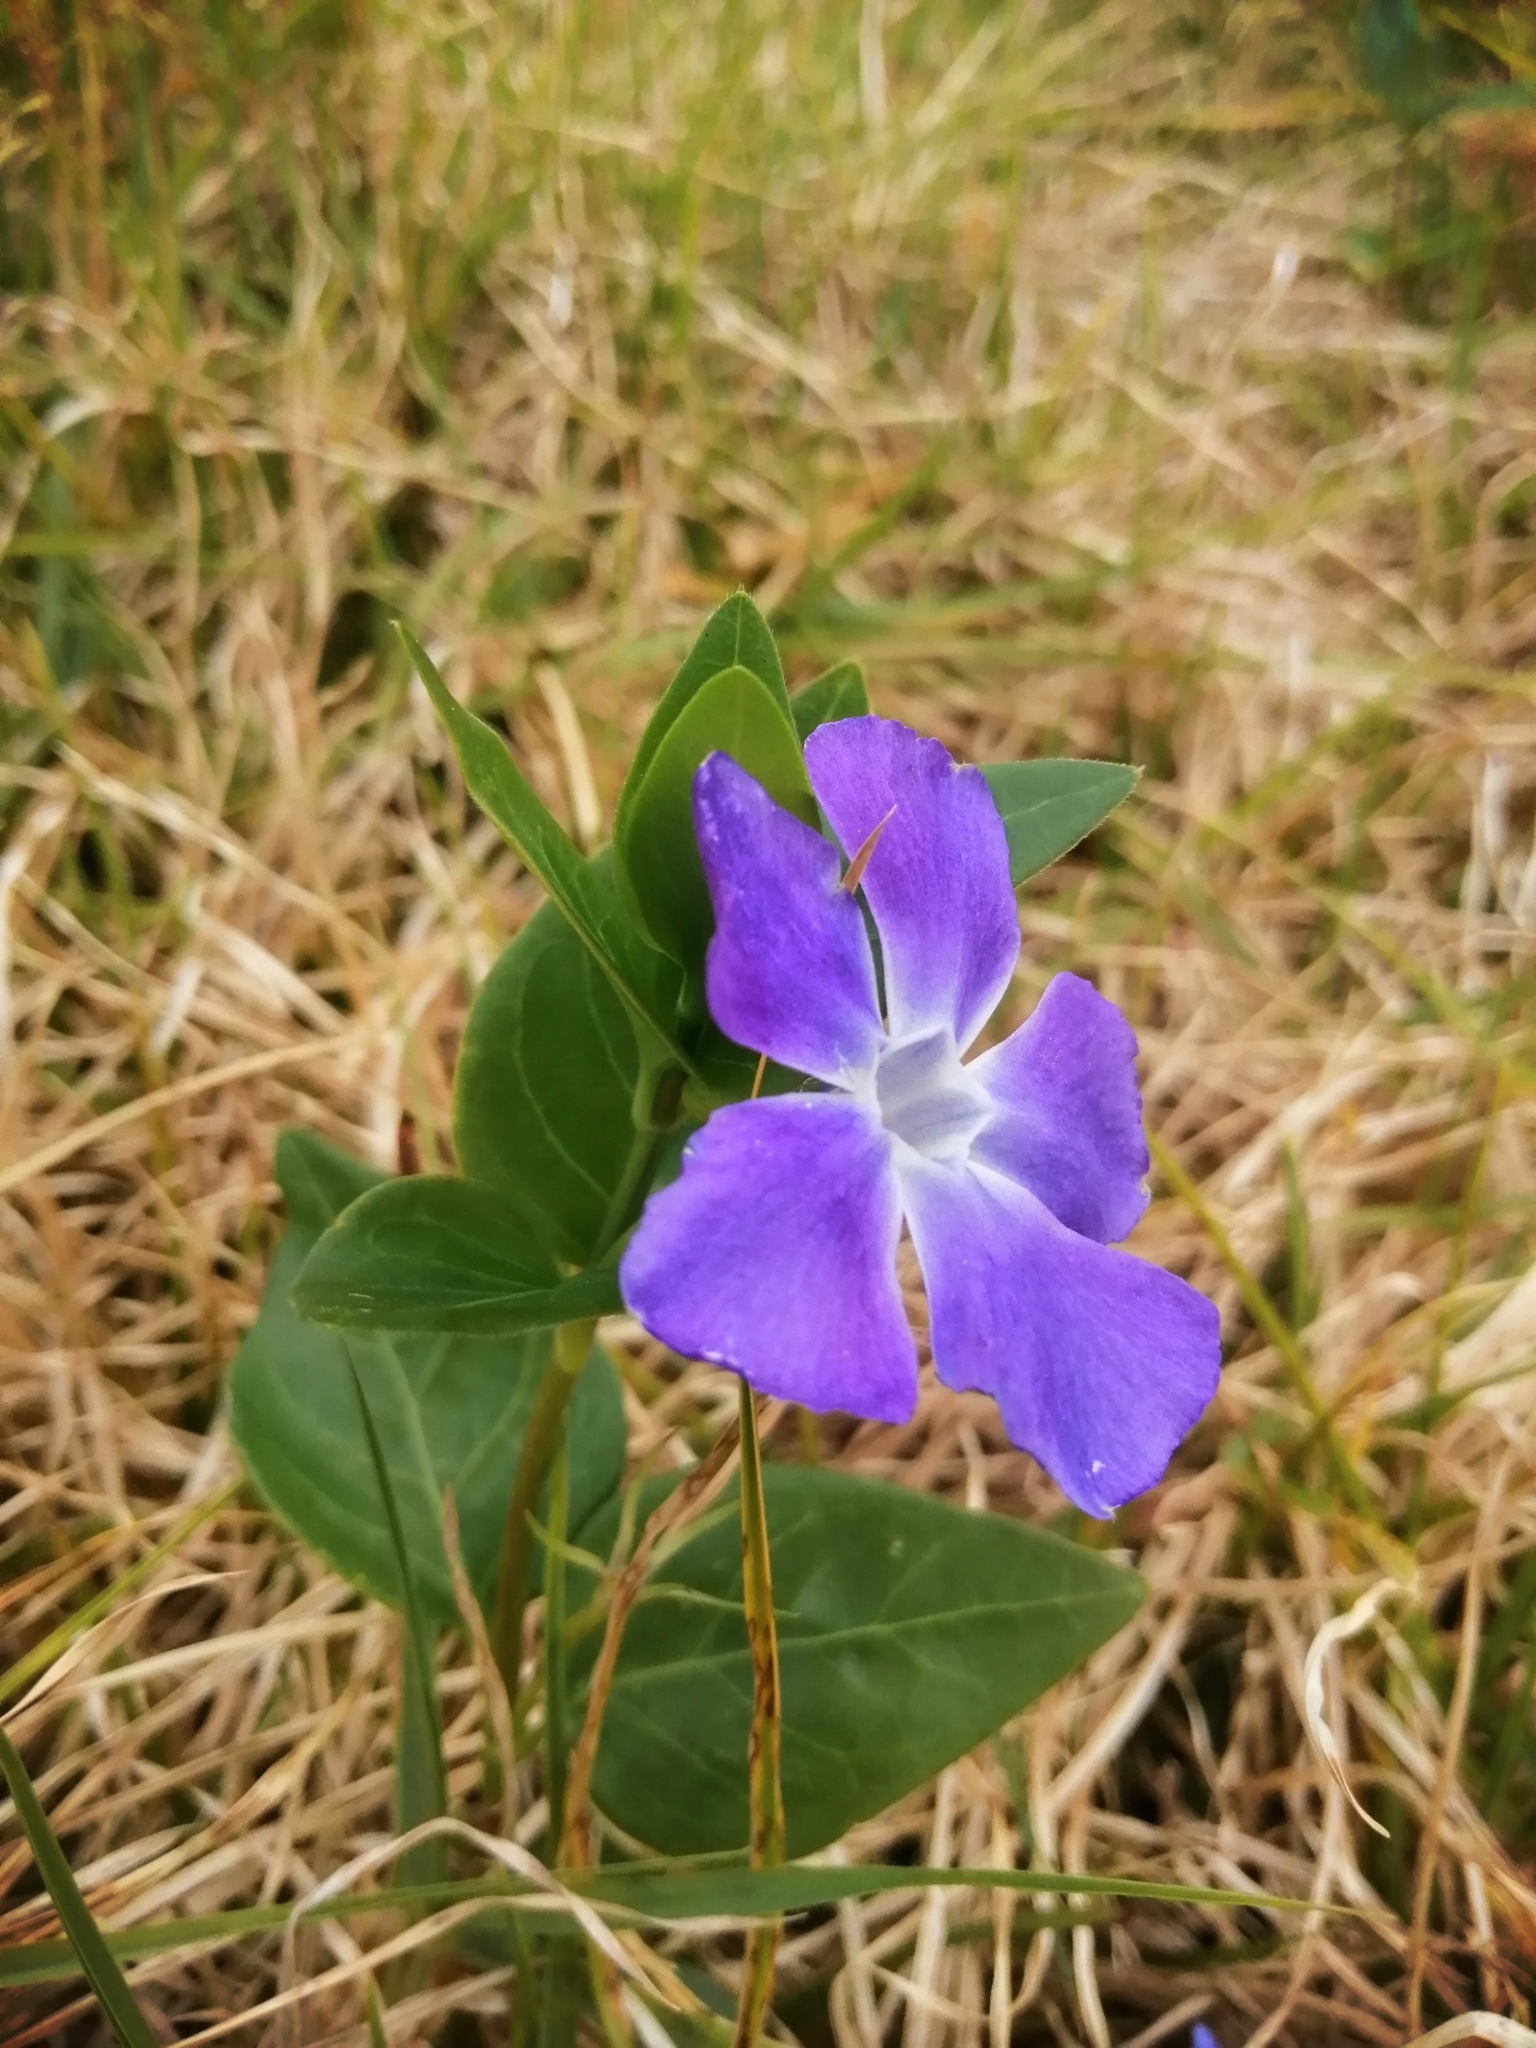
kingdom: Plantae
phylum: Tracheophyta
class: Magnoliopsida
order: Gentianales
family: Apocynaceae
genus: Vinca
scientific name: Vinca major
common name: Greater periwinkle
